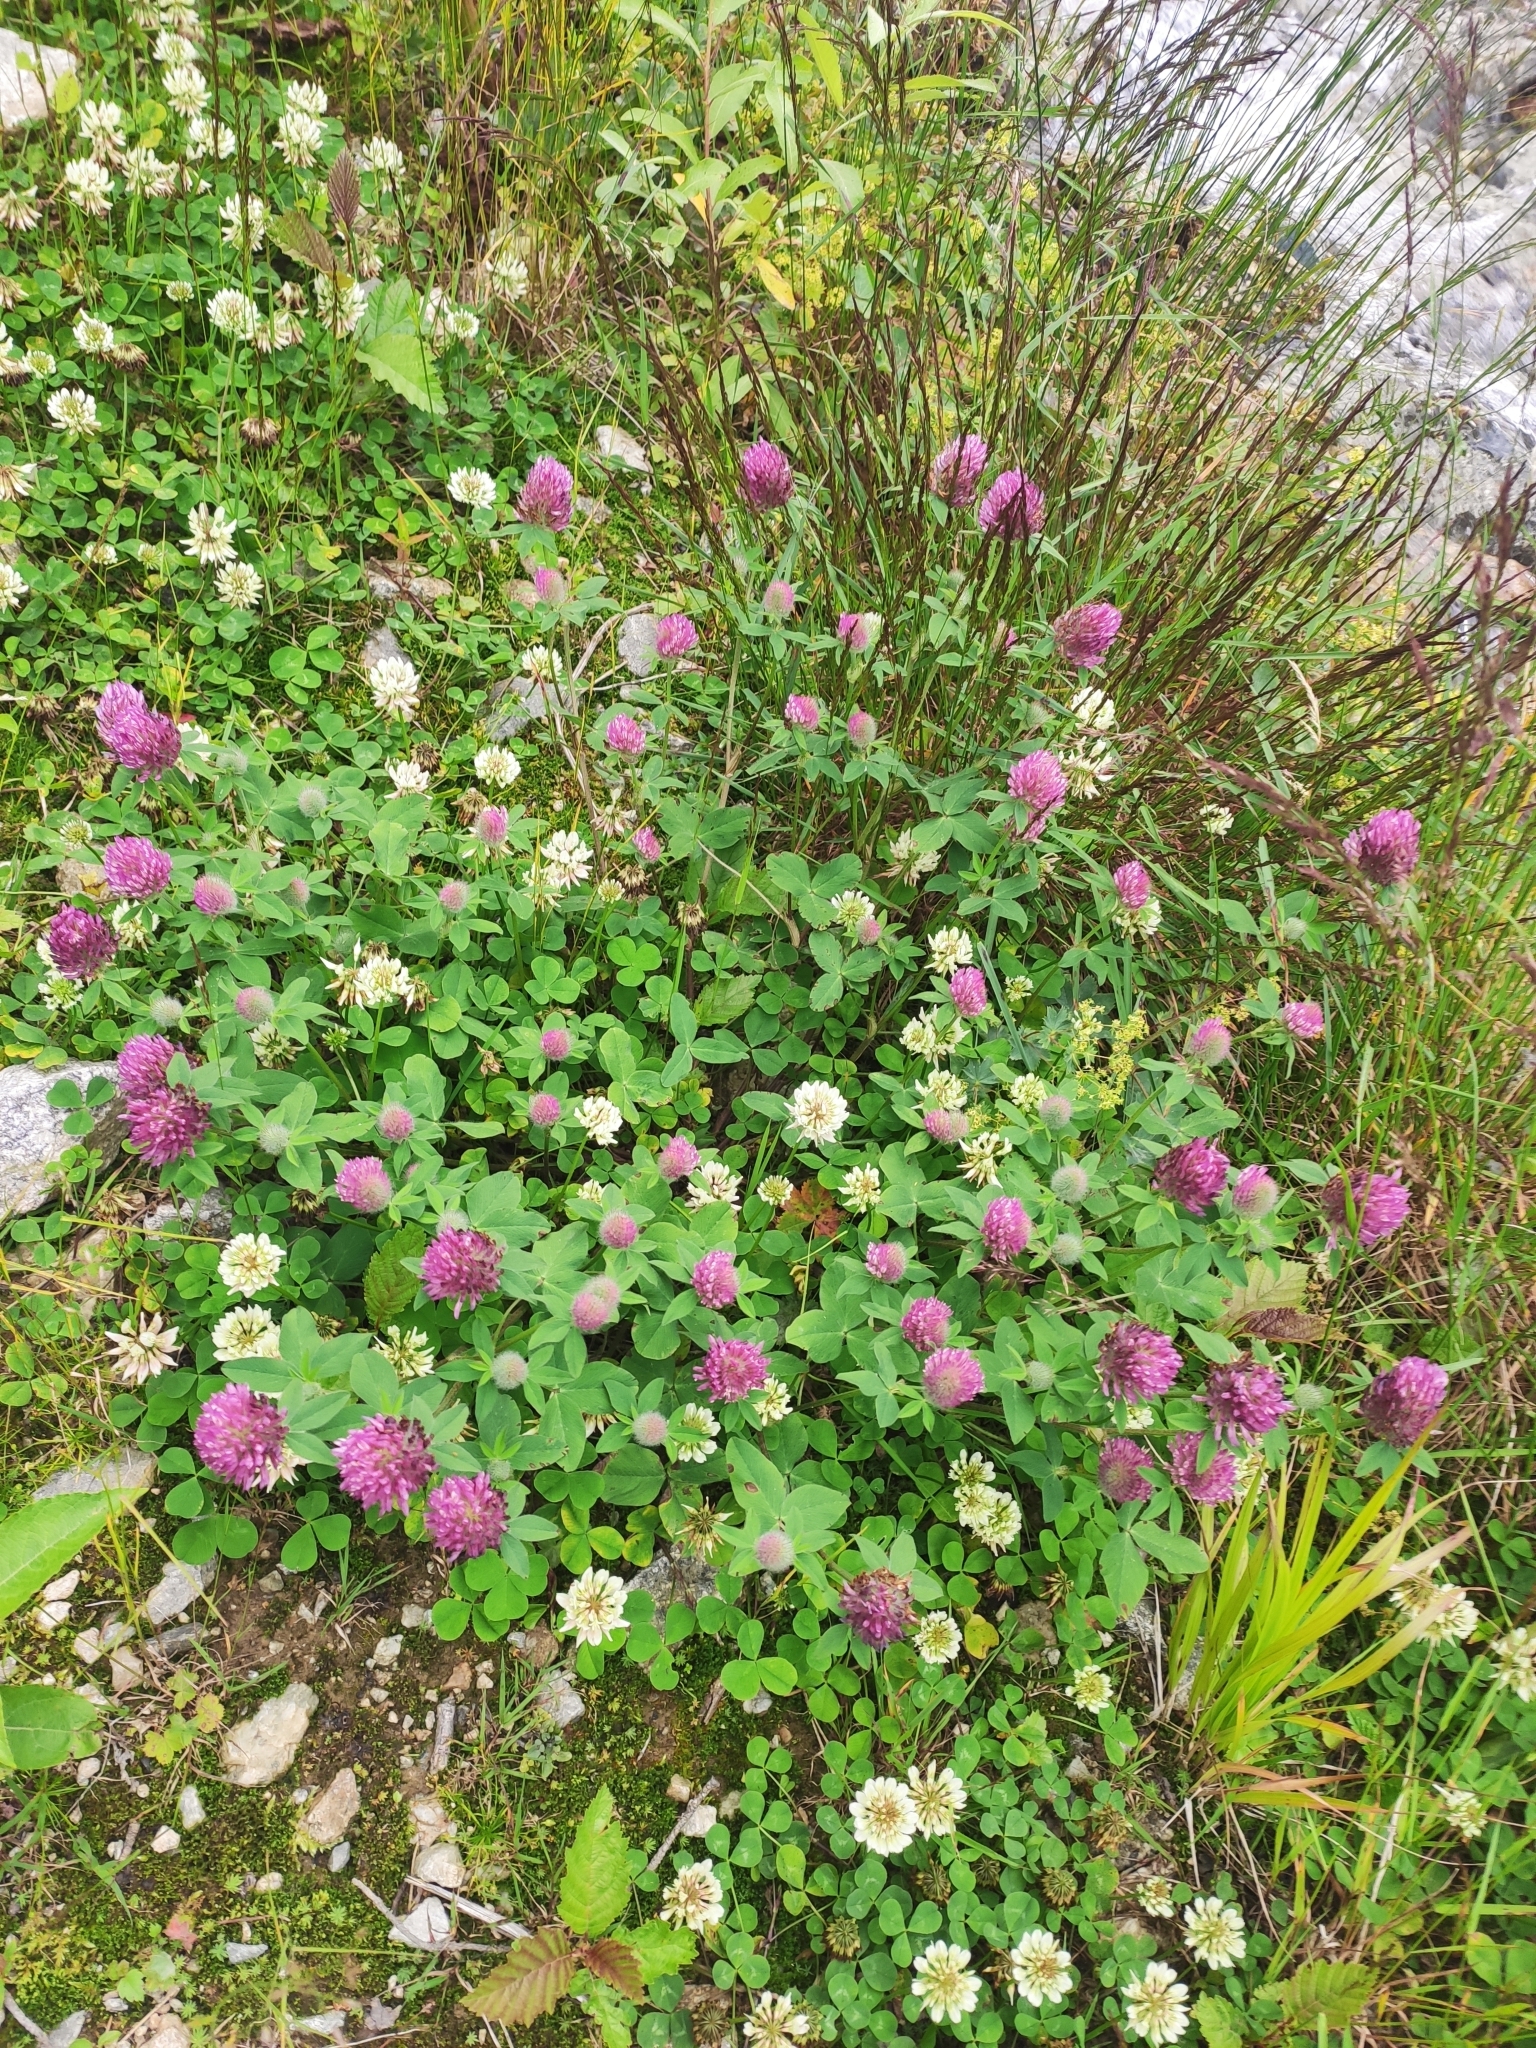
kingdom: Plantae
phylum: Tracheophyta
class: Magnoliopsida
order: Fabales
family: Fabaceae
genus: Trifolium
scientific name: Trifolium pratense
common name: Red clover
